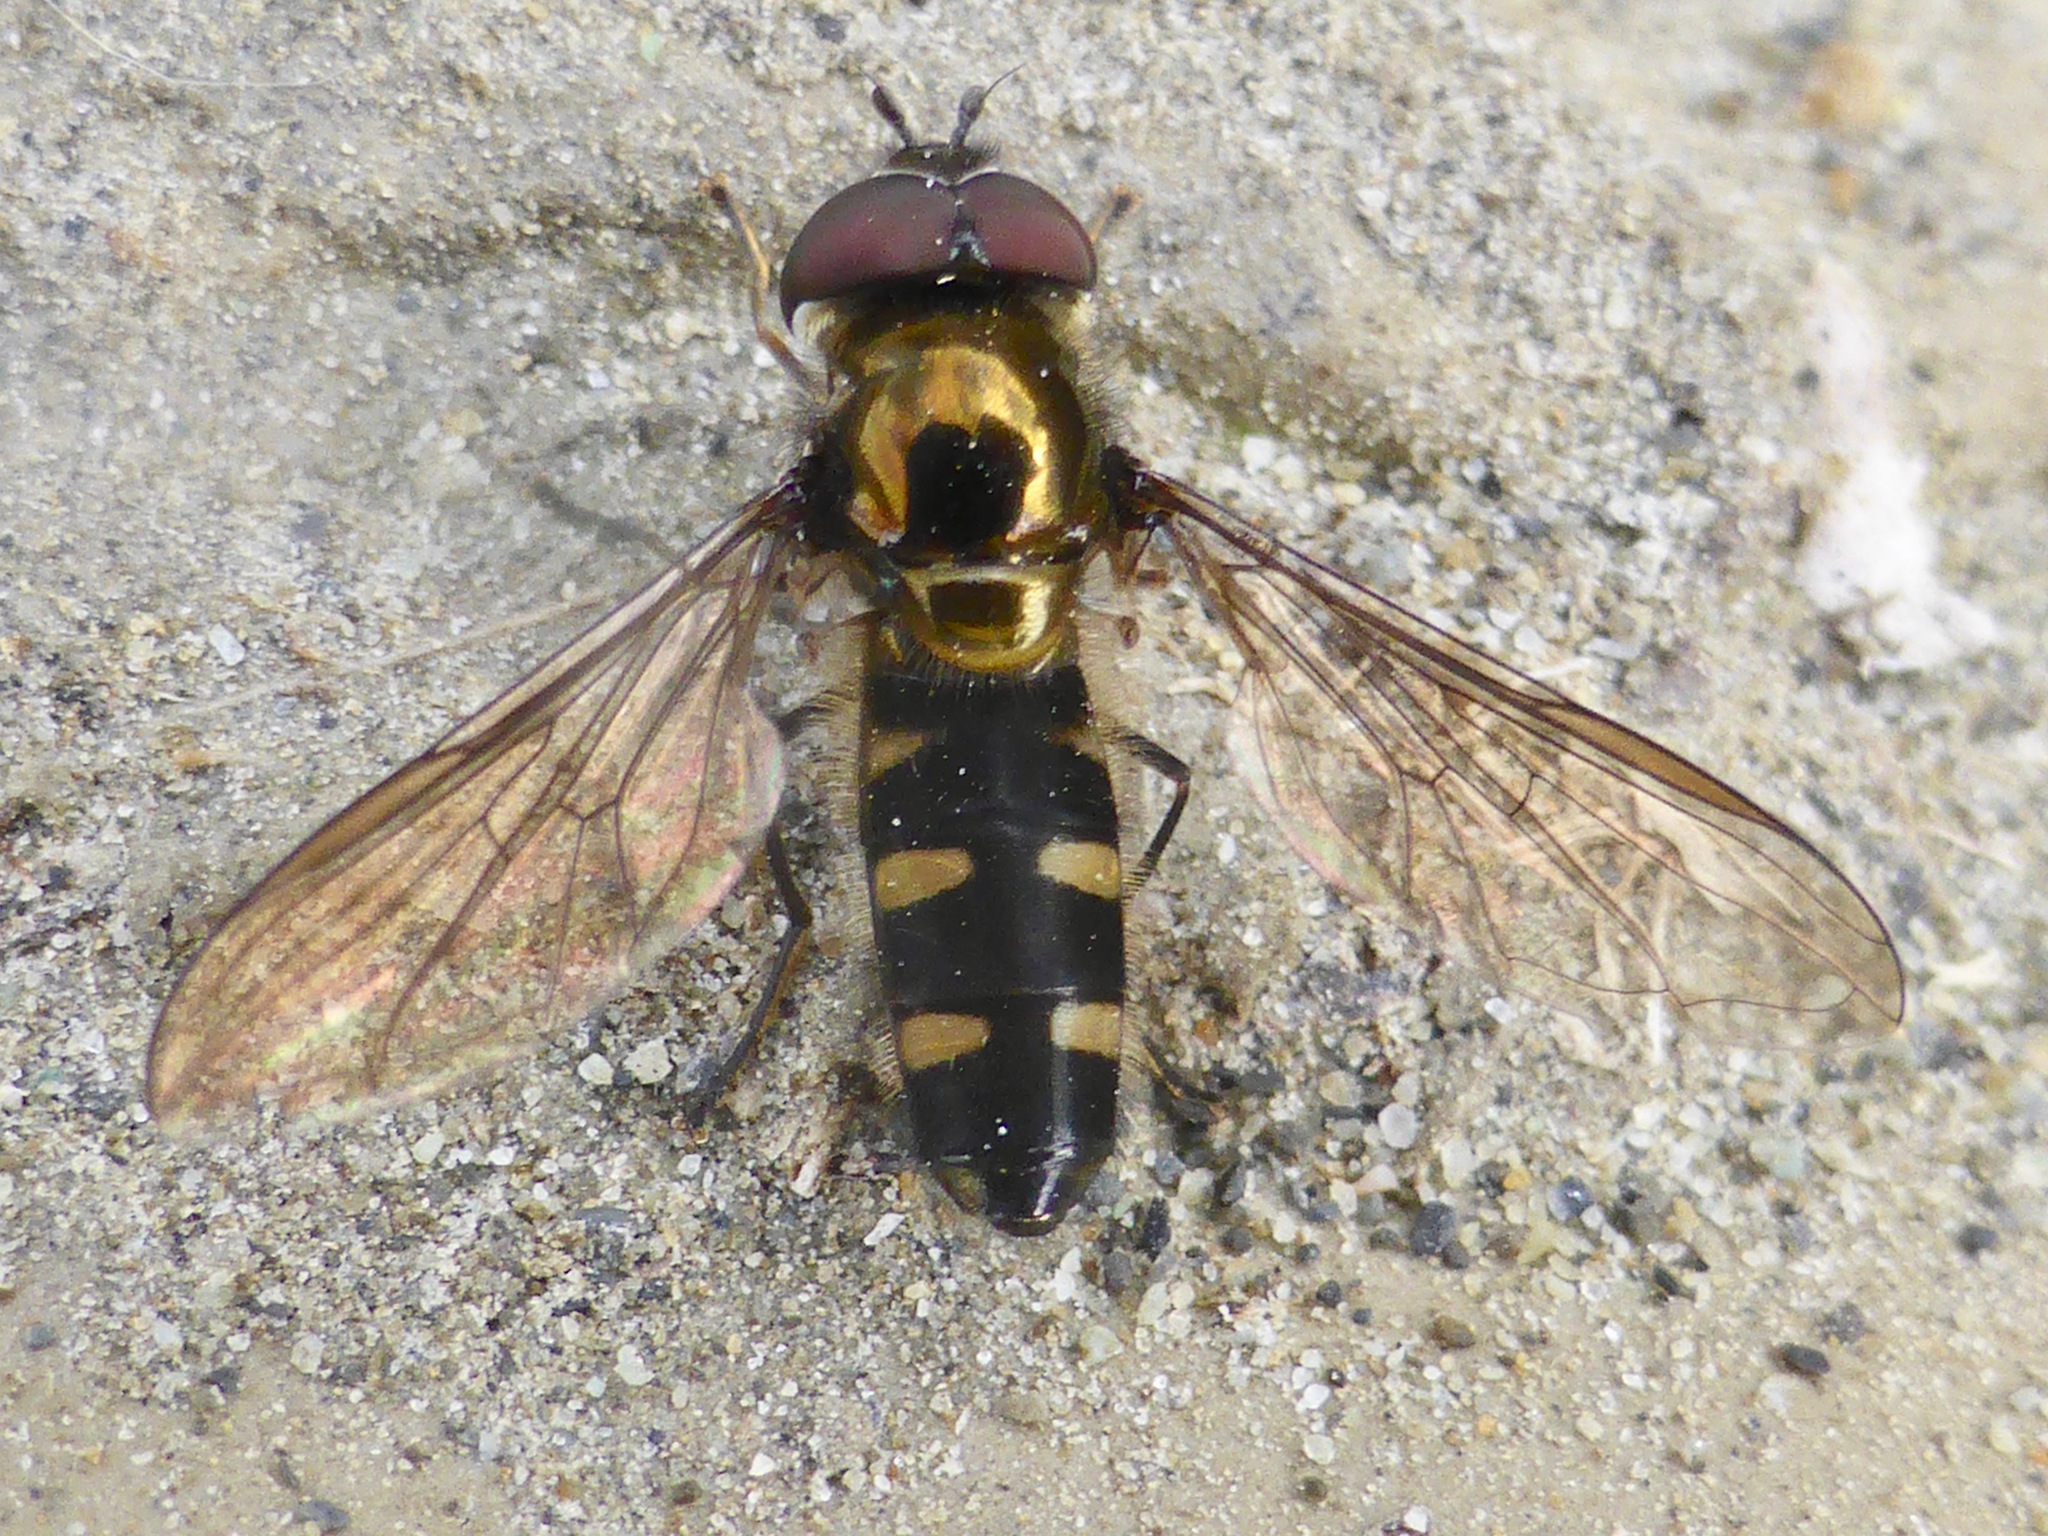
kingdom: Animalia
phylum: Arthropoda
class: Insecta
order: Diptera
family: Syrphidae
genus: Melangyna
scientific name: Melangyna novaezelandiae
